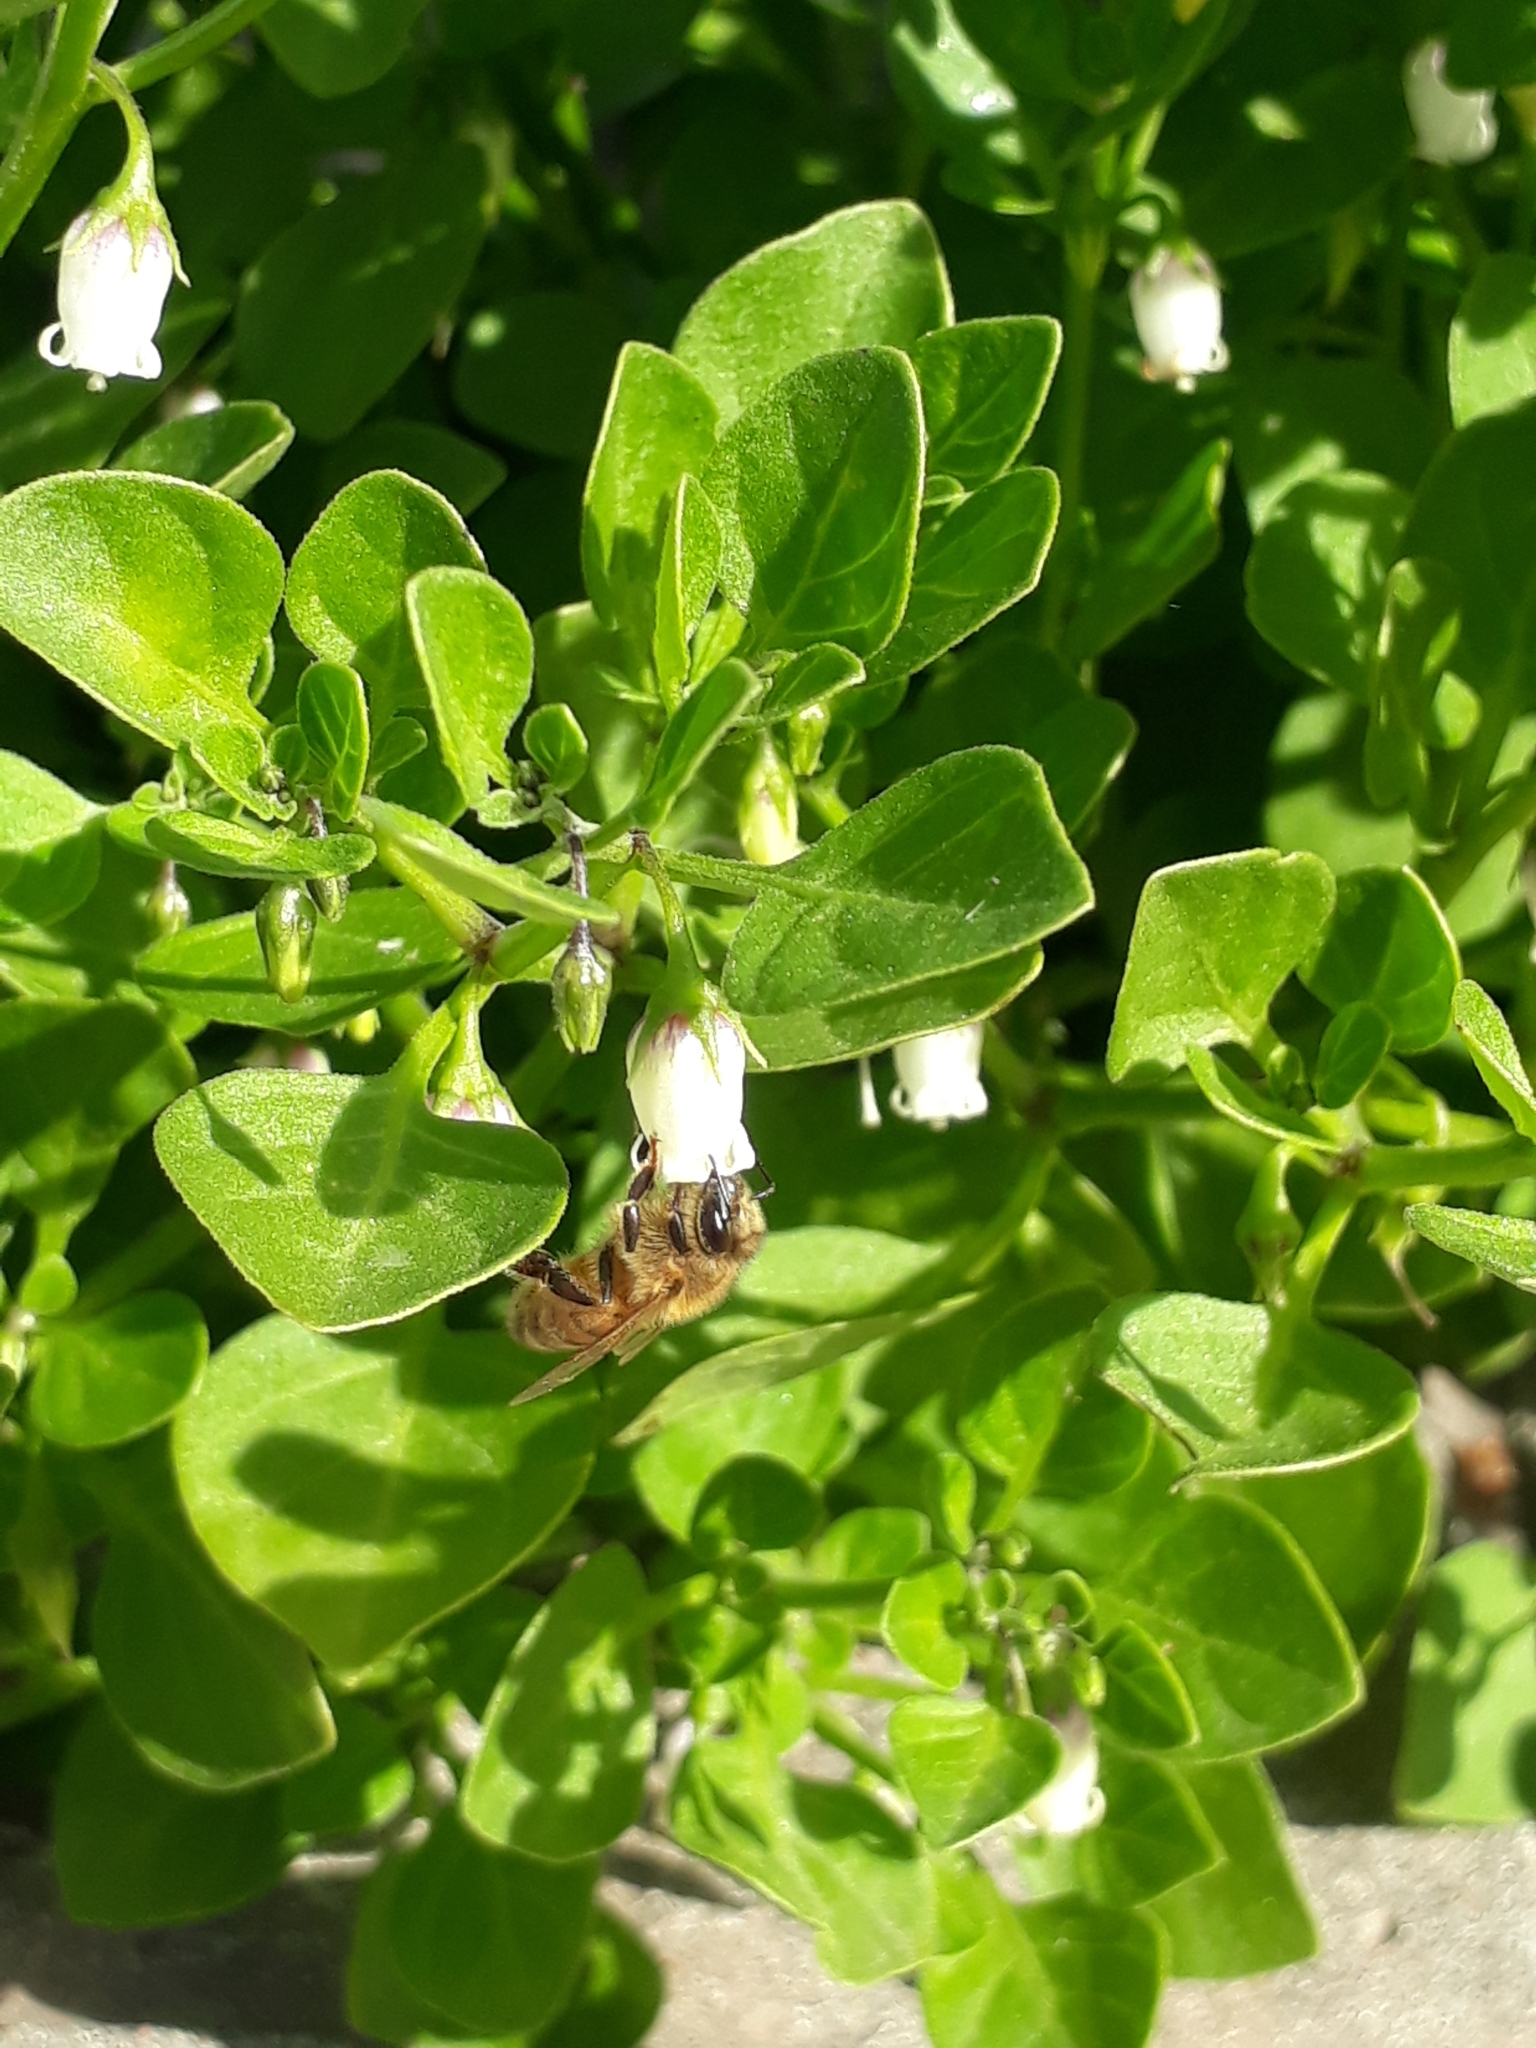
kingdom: Animalia
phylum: Arthropoda
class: Insecta
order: Hymenoptera
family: Apidae
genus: Apis
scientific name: Apis mellifera
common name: Honey bee
